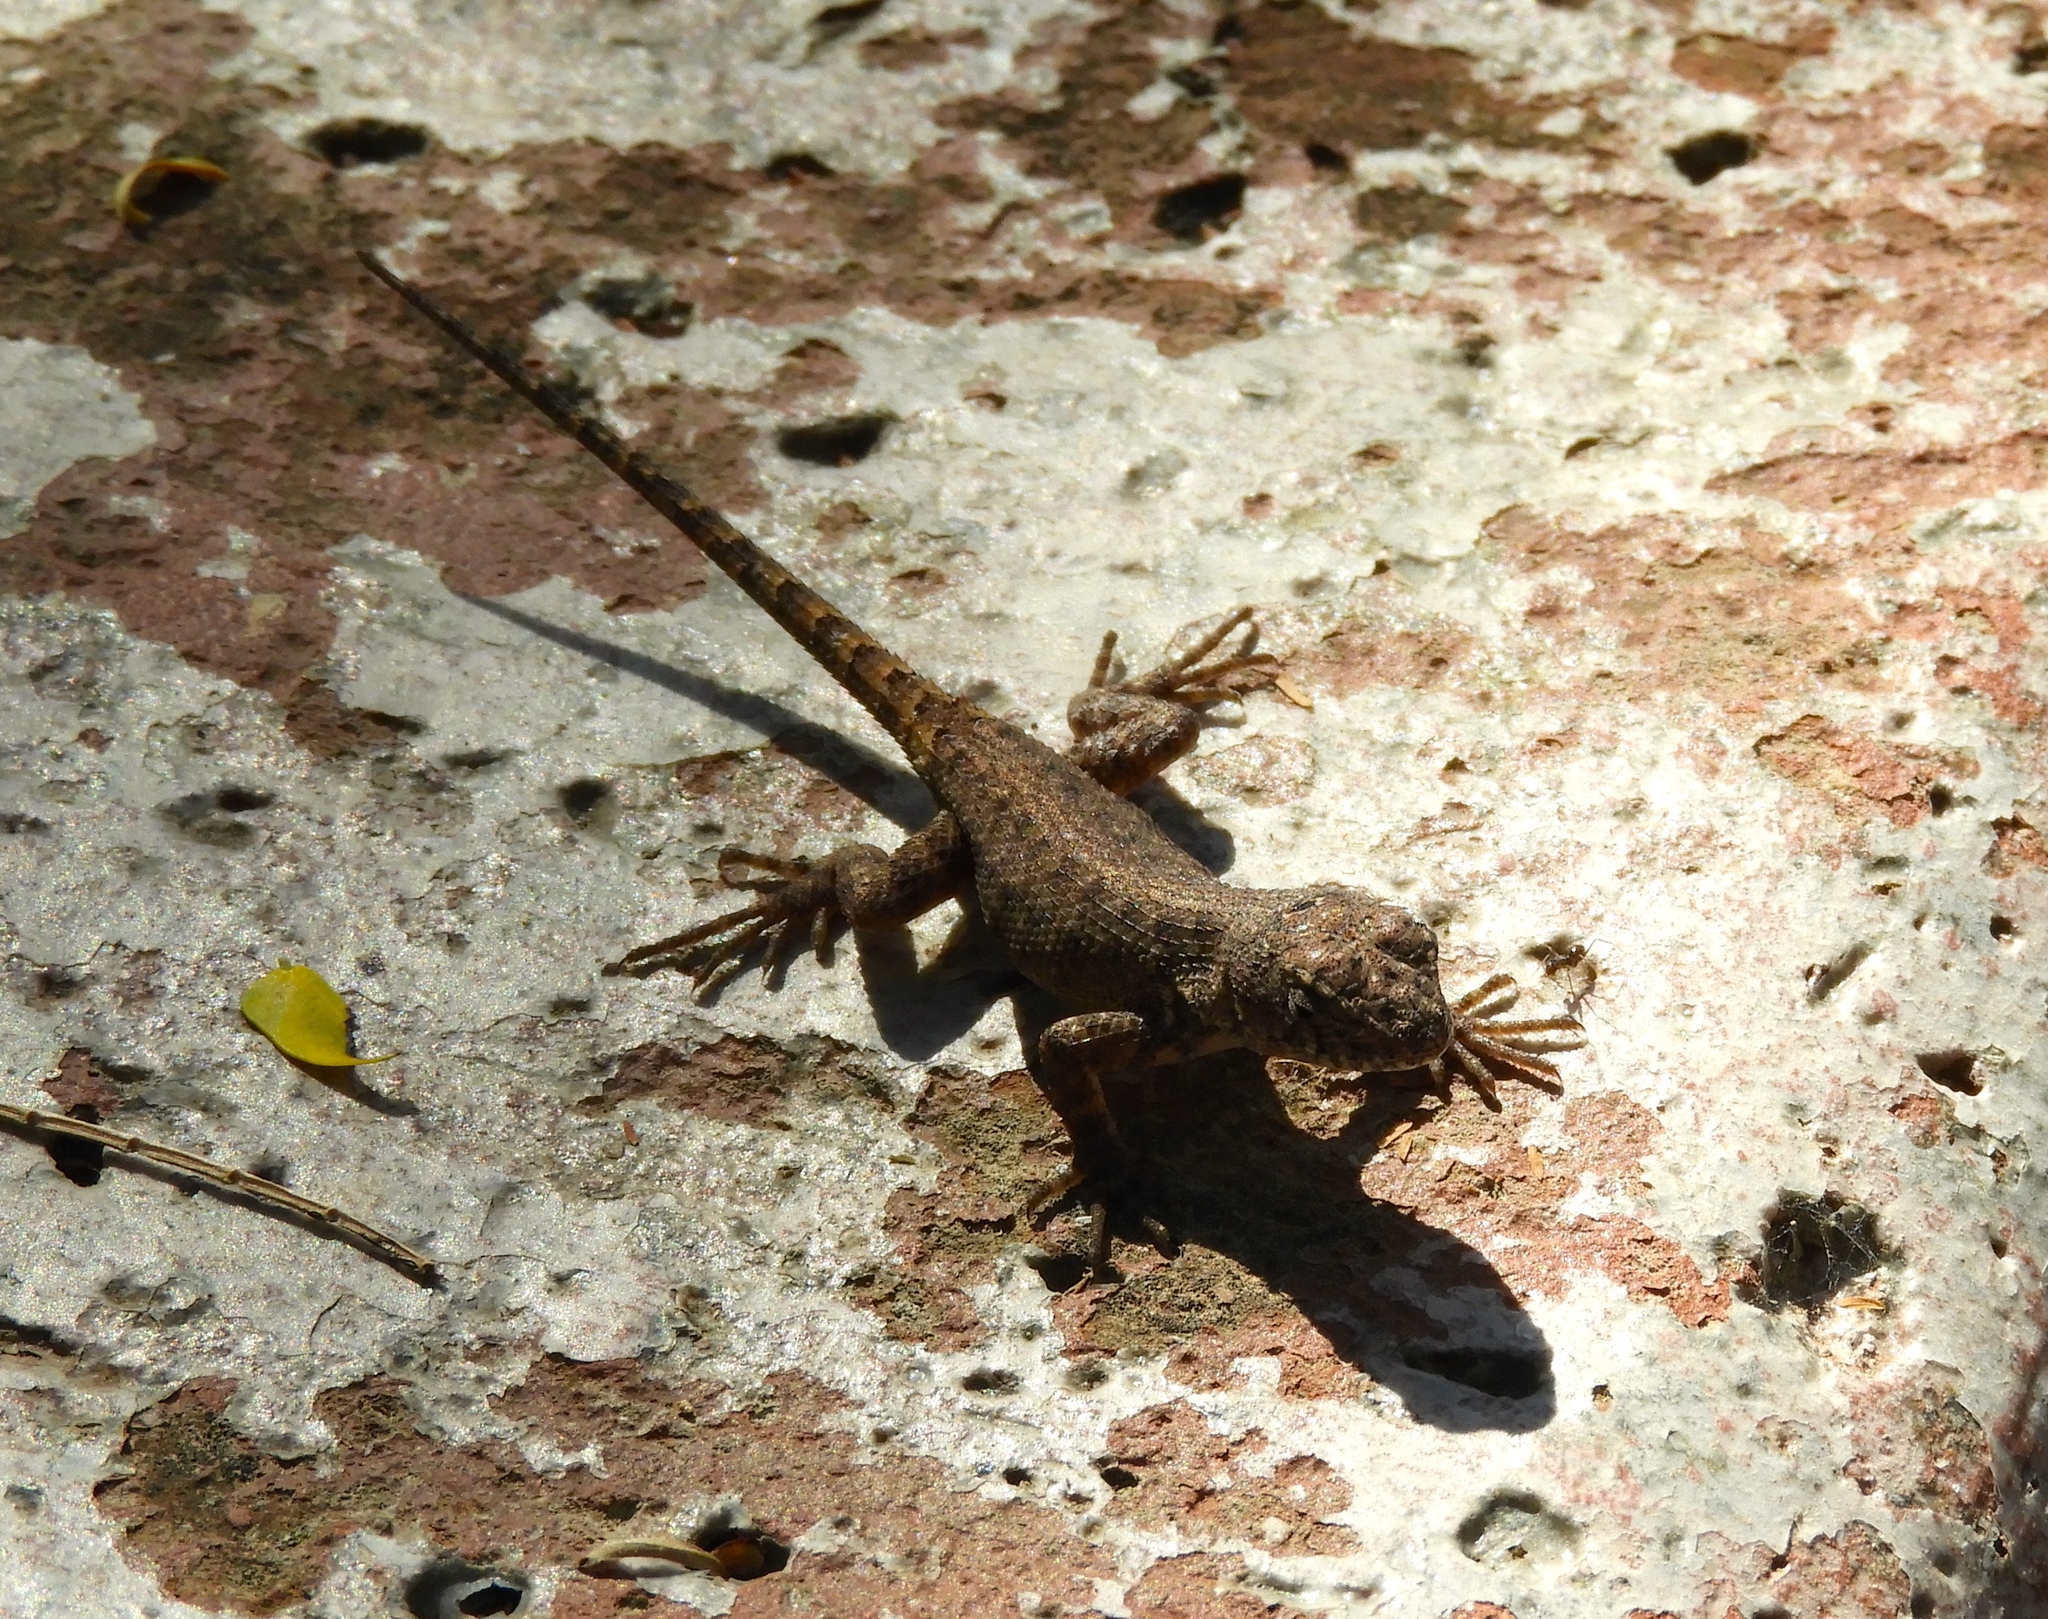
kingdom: Animalia
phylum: Chordata
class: Squamata
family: Phrynosomatidae
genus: Sceloporus
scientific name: Sceloporus nelsoni
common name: Nelson's spiny lizard
